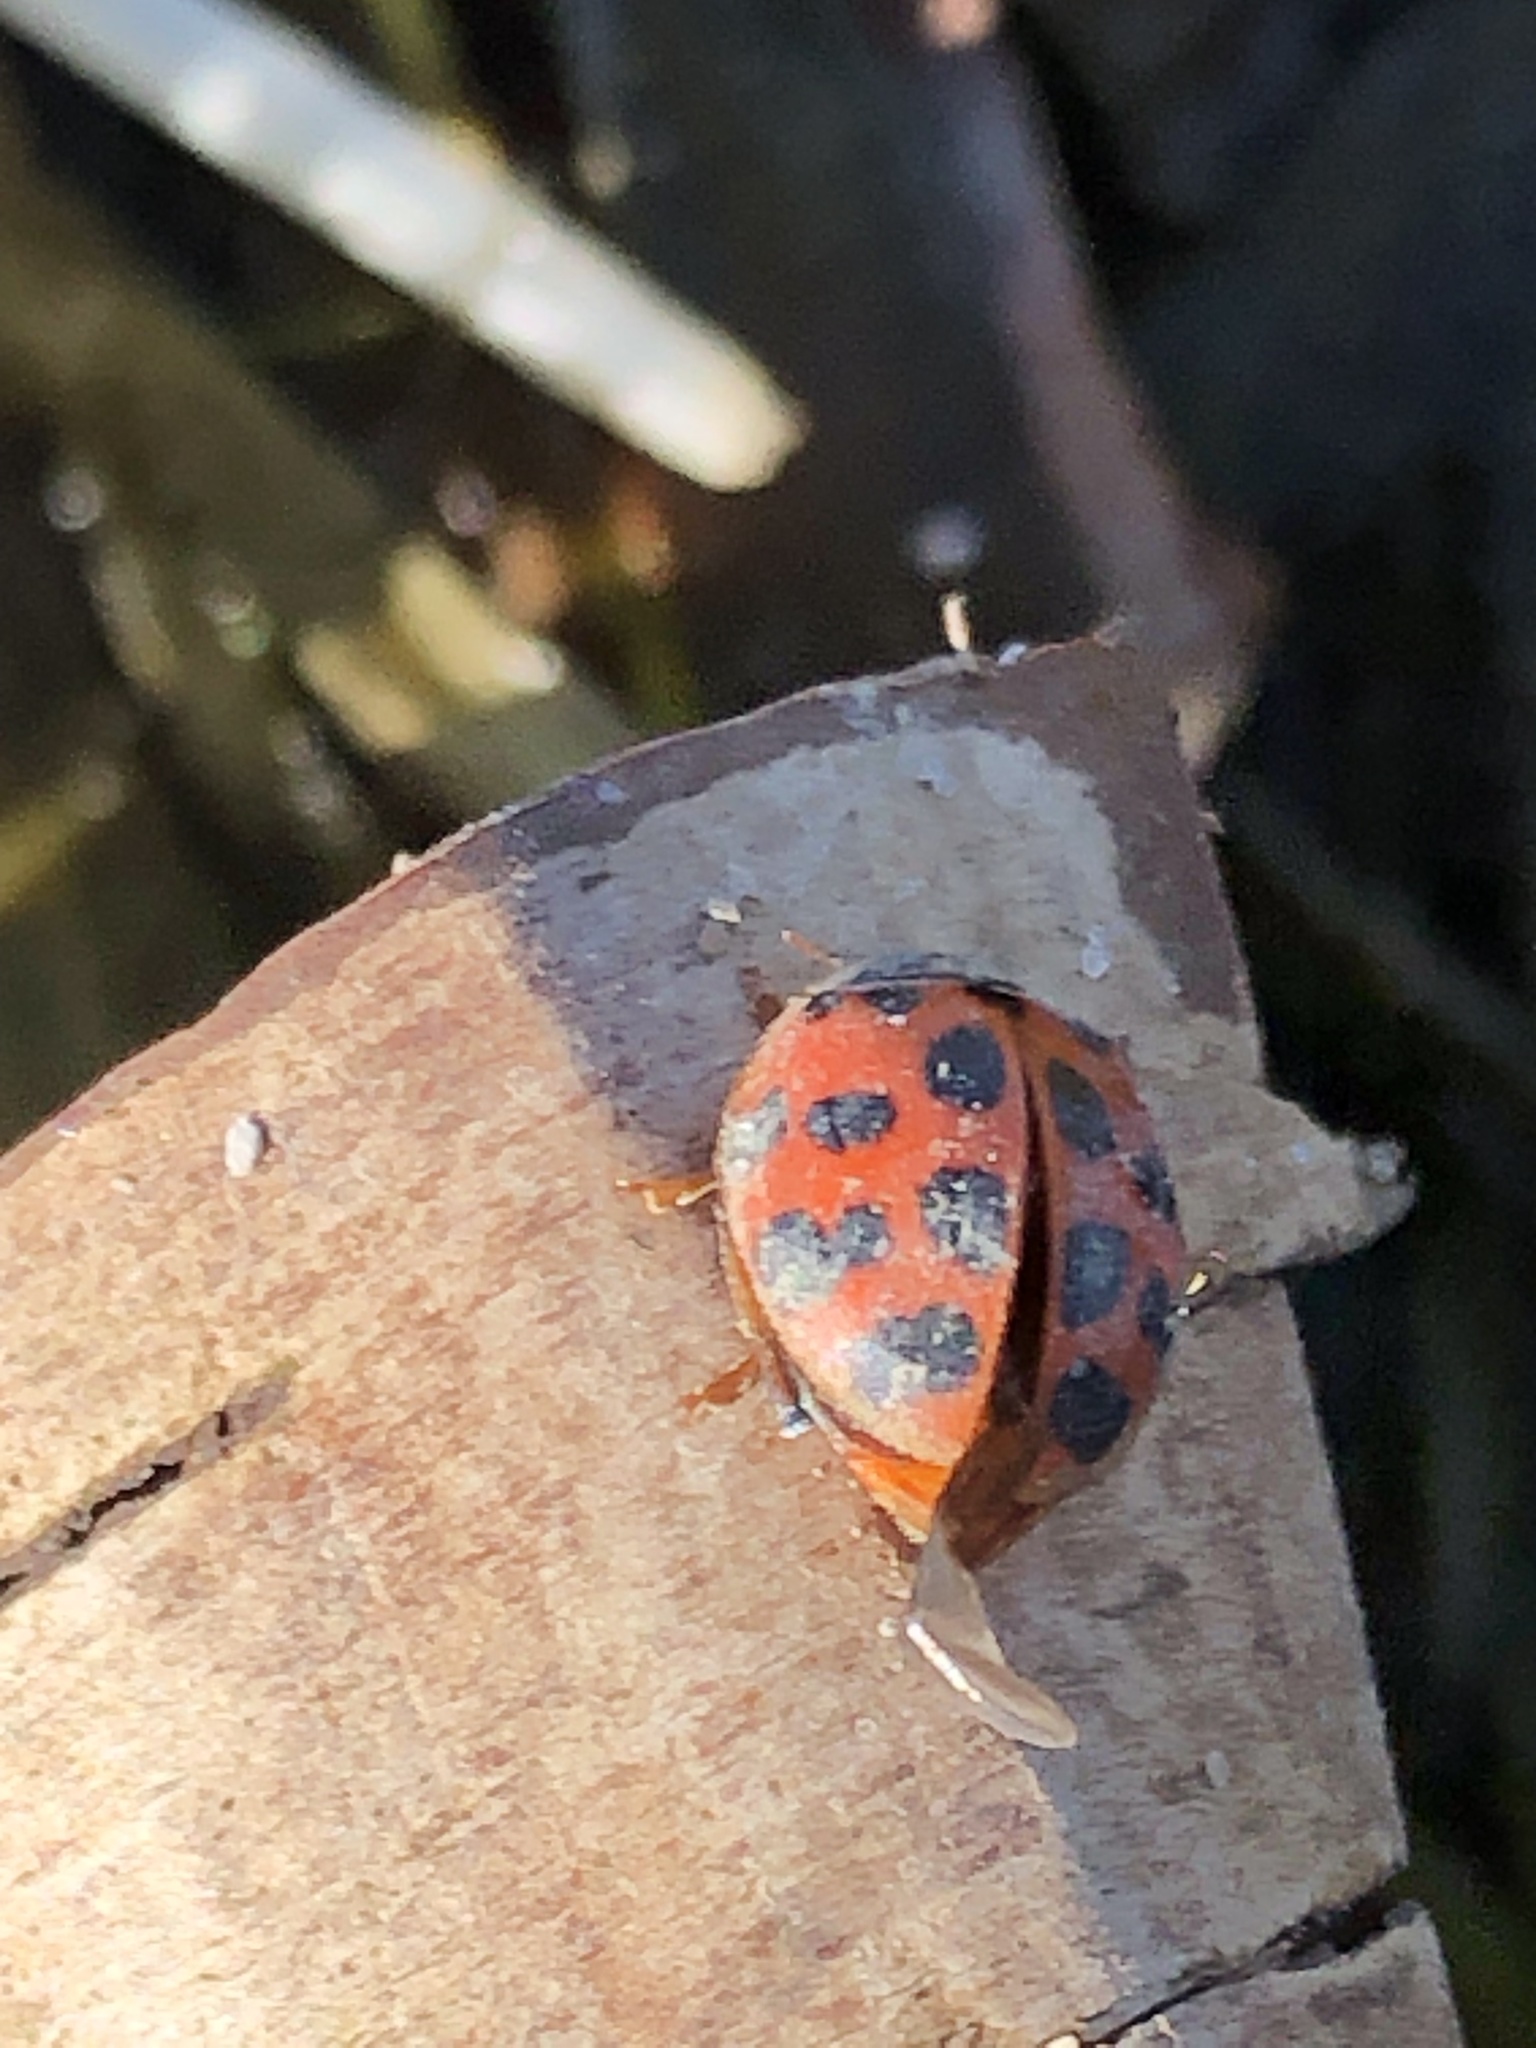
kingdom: Animalia
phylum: Arthropoda
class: Insecta
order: Coleoptera
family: Coccinellidae
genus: Harmonia
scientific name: Harmonia axyridis
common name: Harlequin ladybird
